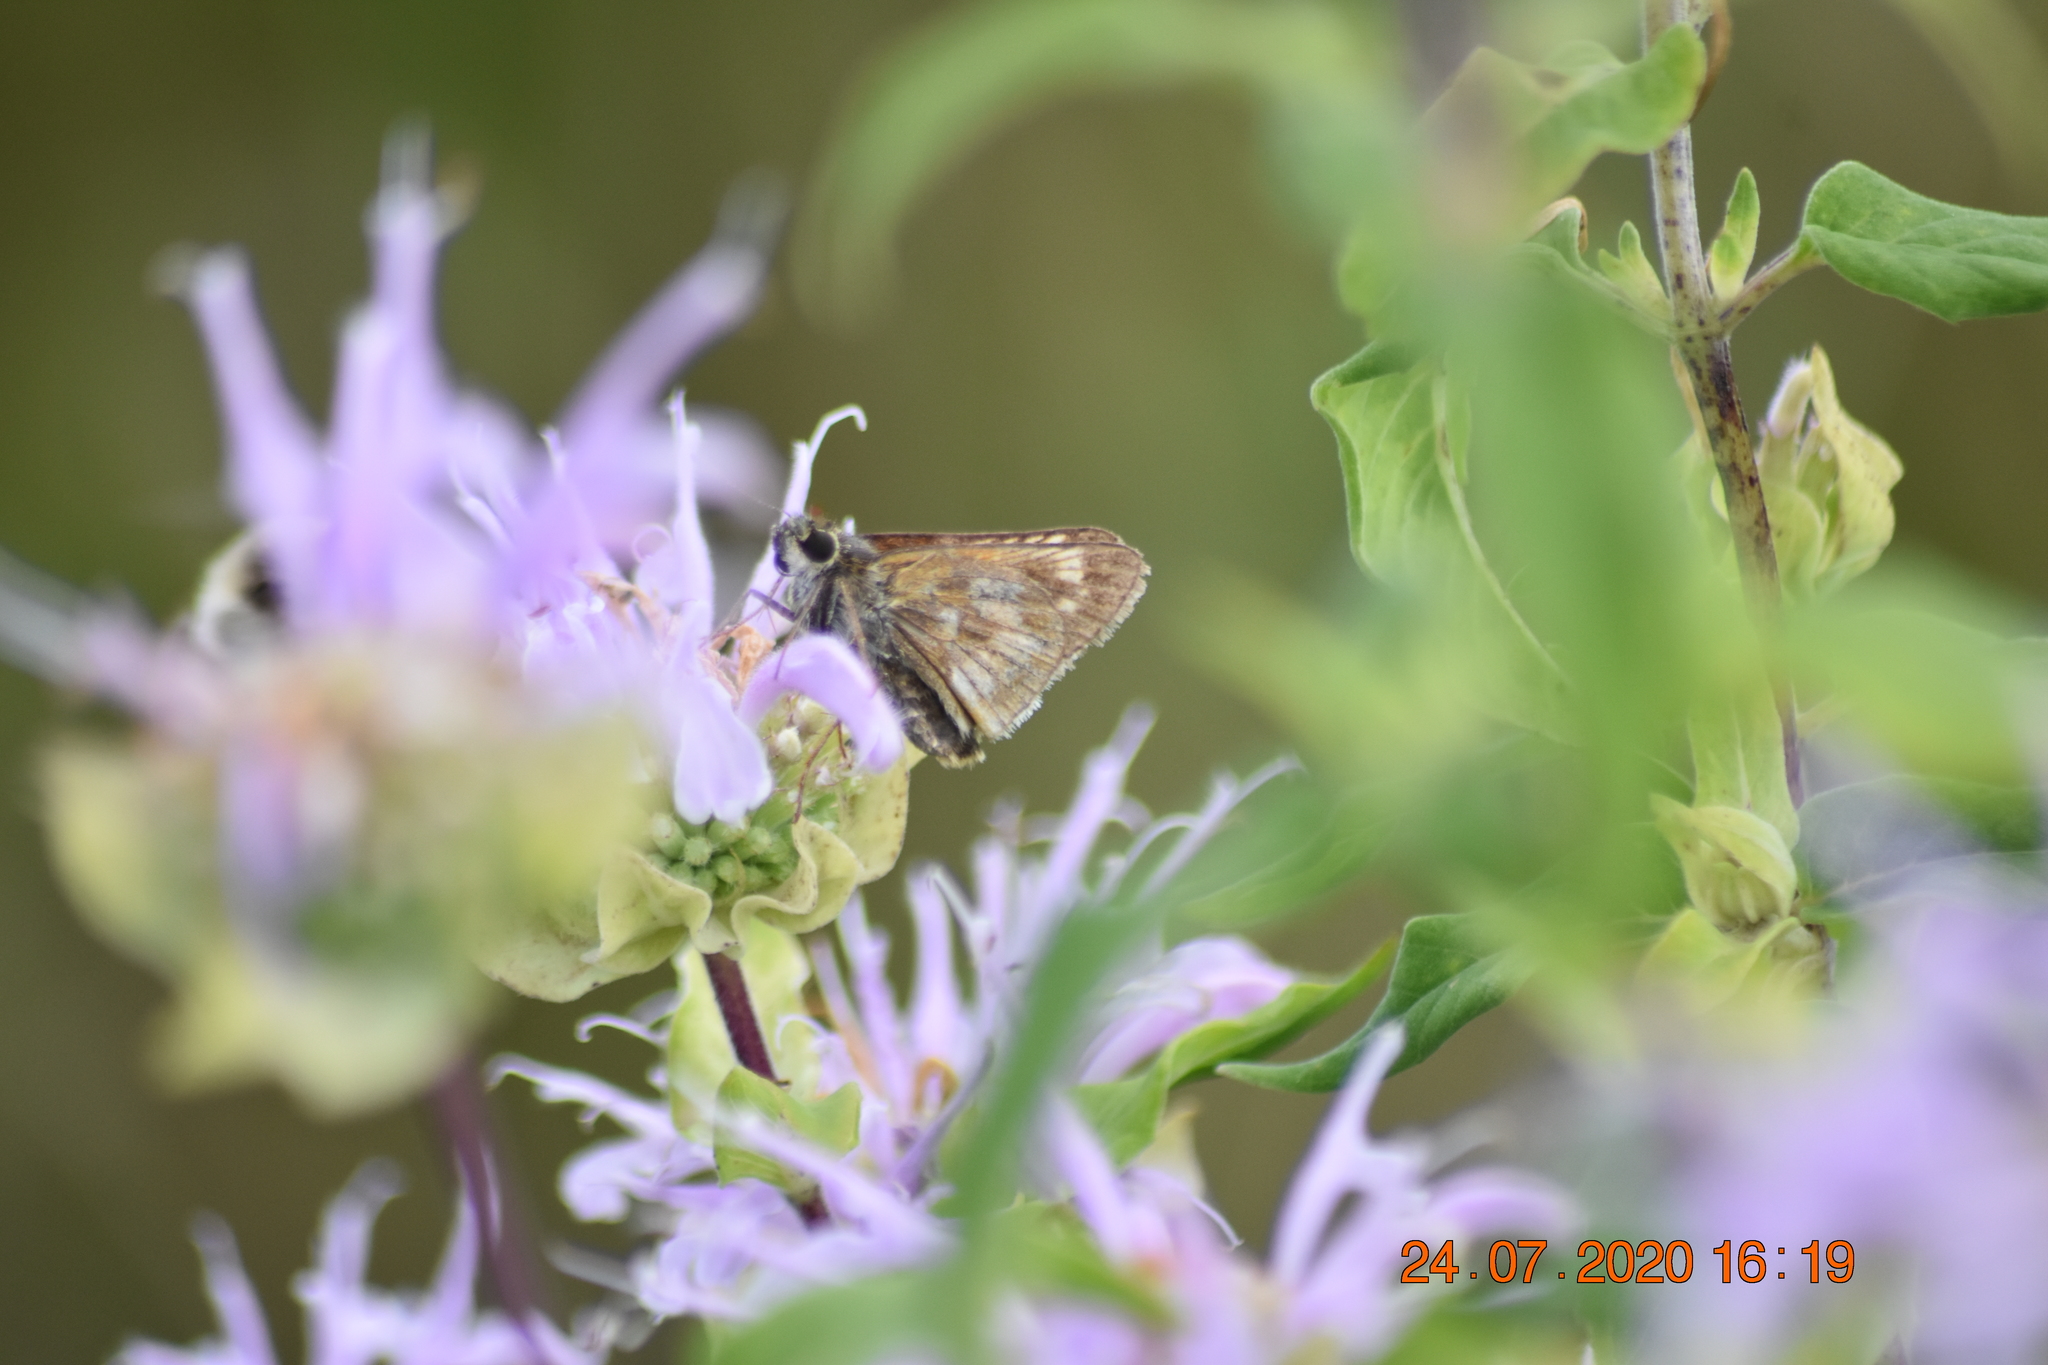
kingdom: Animalia
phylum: Arthropoda
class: Insecta
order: Lepidoptera
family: Hesperiidae
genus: Polites
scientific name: Polites mystic
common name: Long dash
